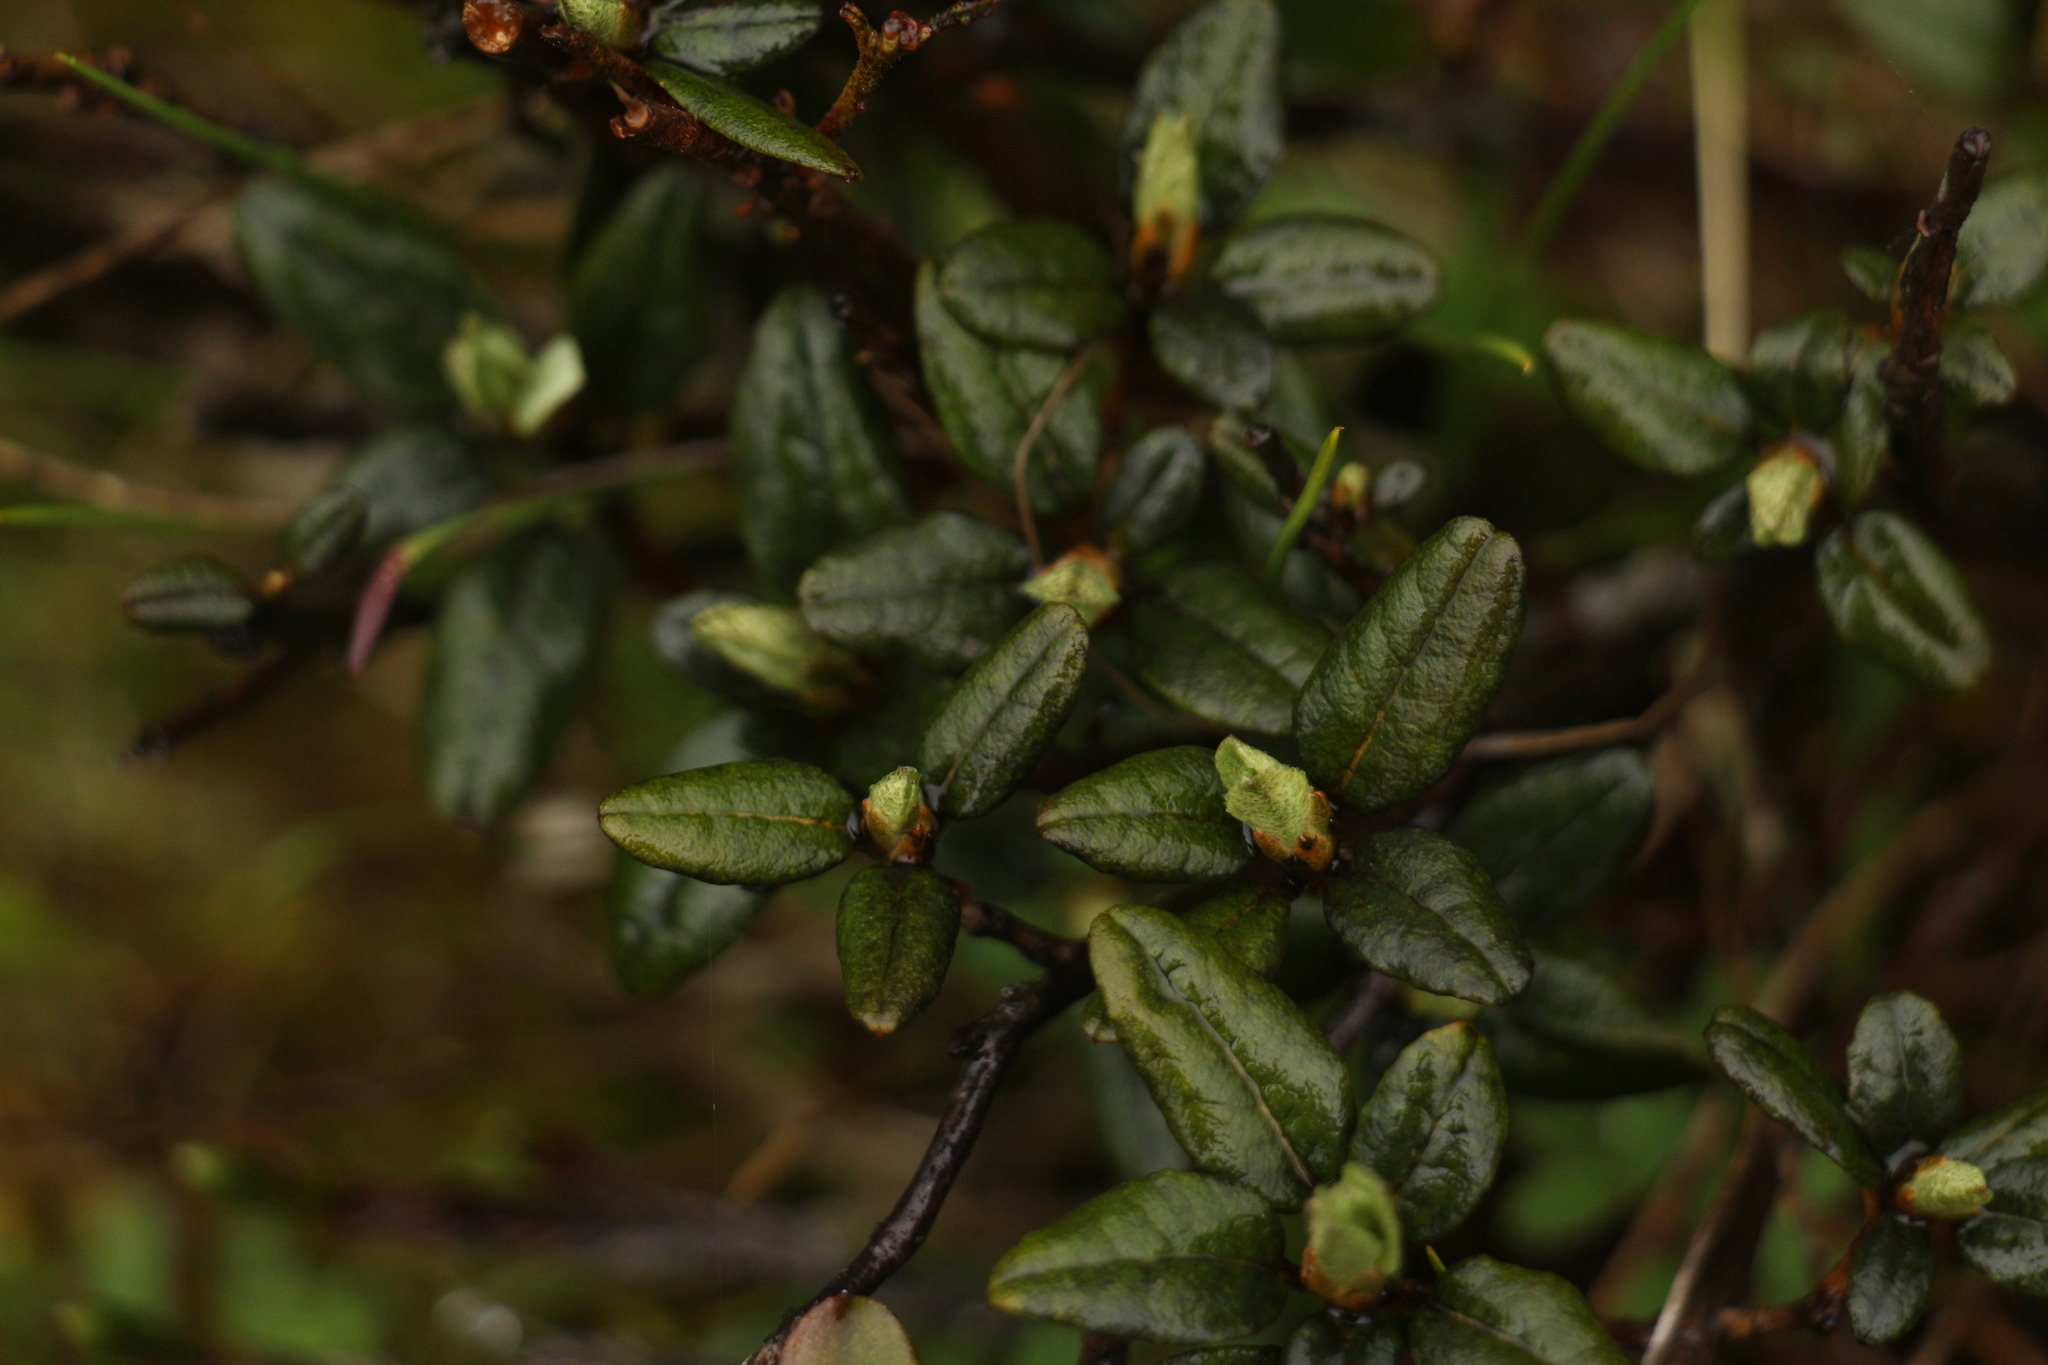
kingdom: Plantae
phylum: Tracheophyta
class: Magnoliopsida
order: Ericales
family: Ericaceae
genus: Rhododendron
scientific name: Rhododendron anthopogon
